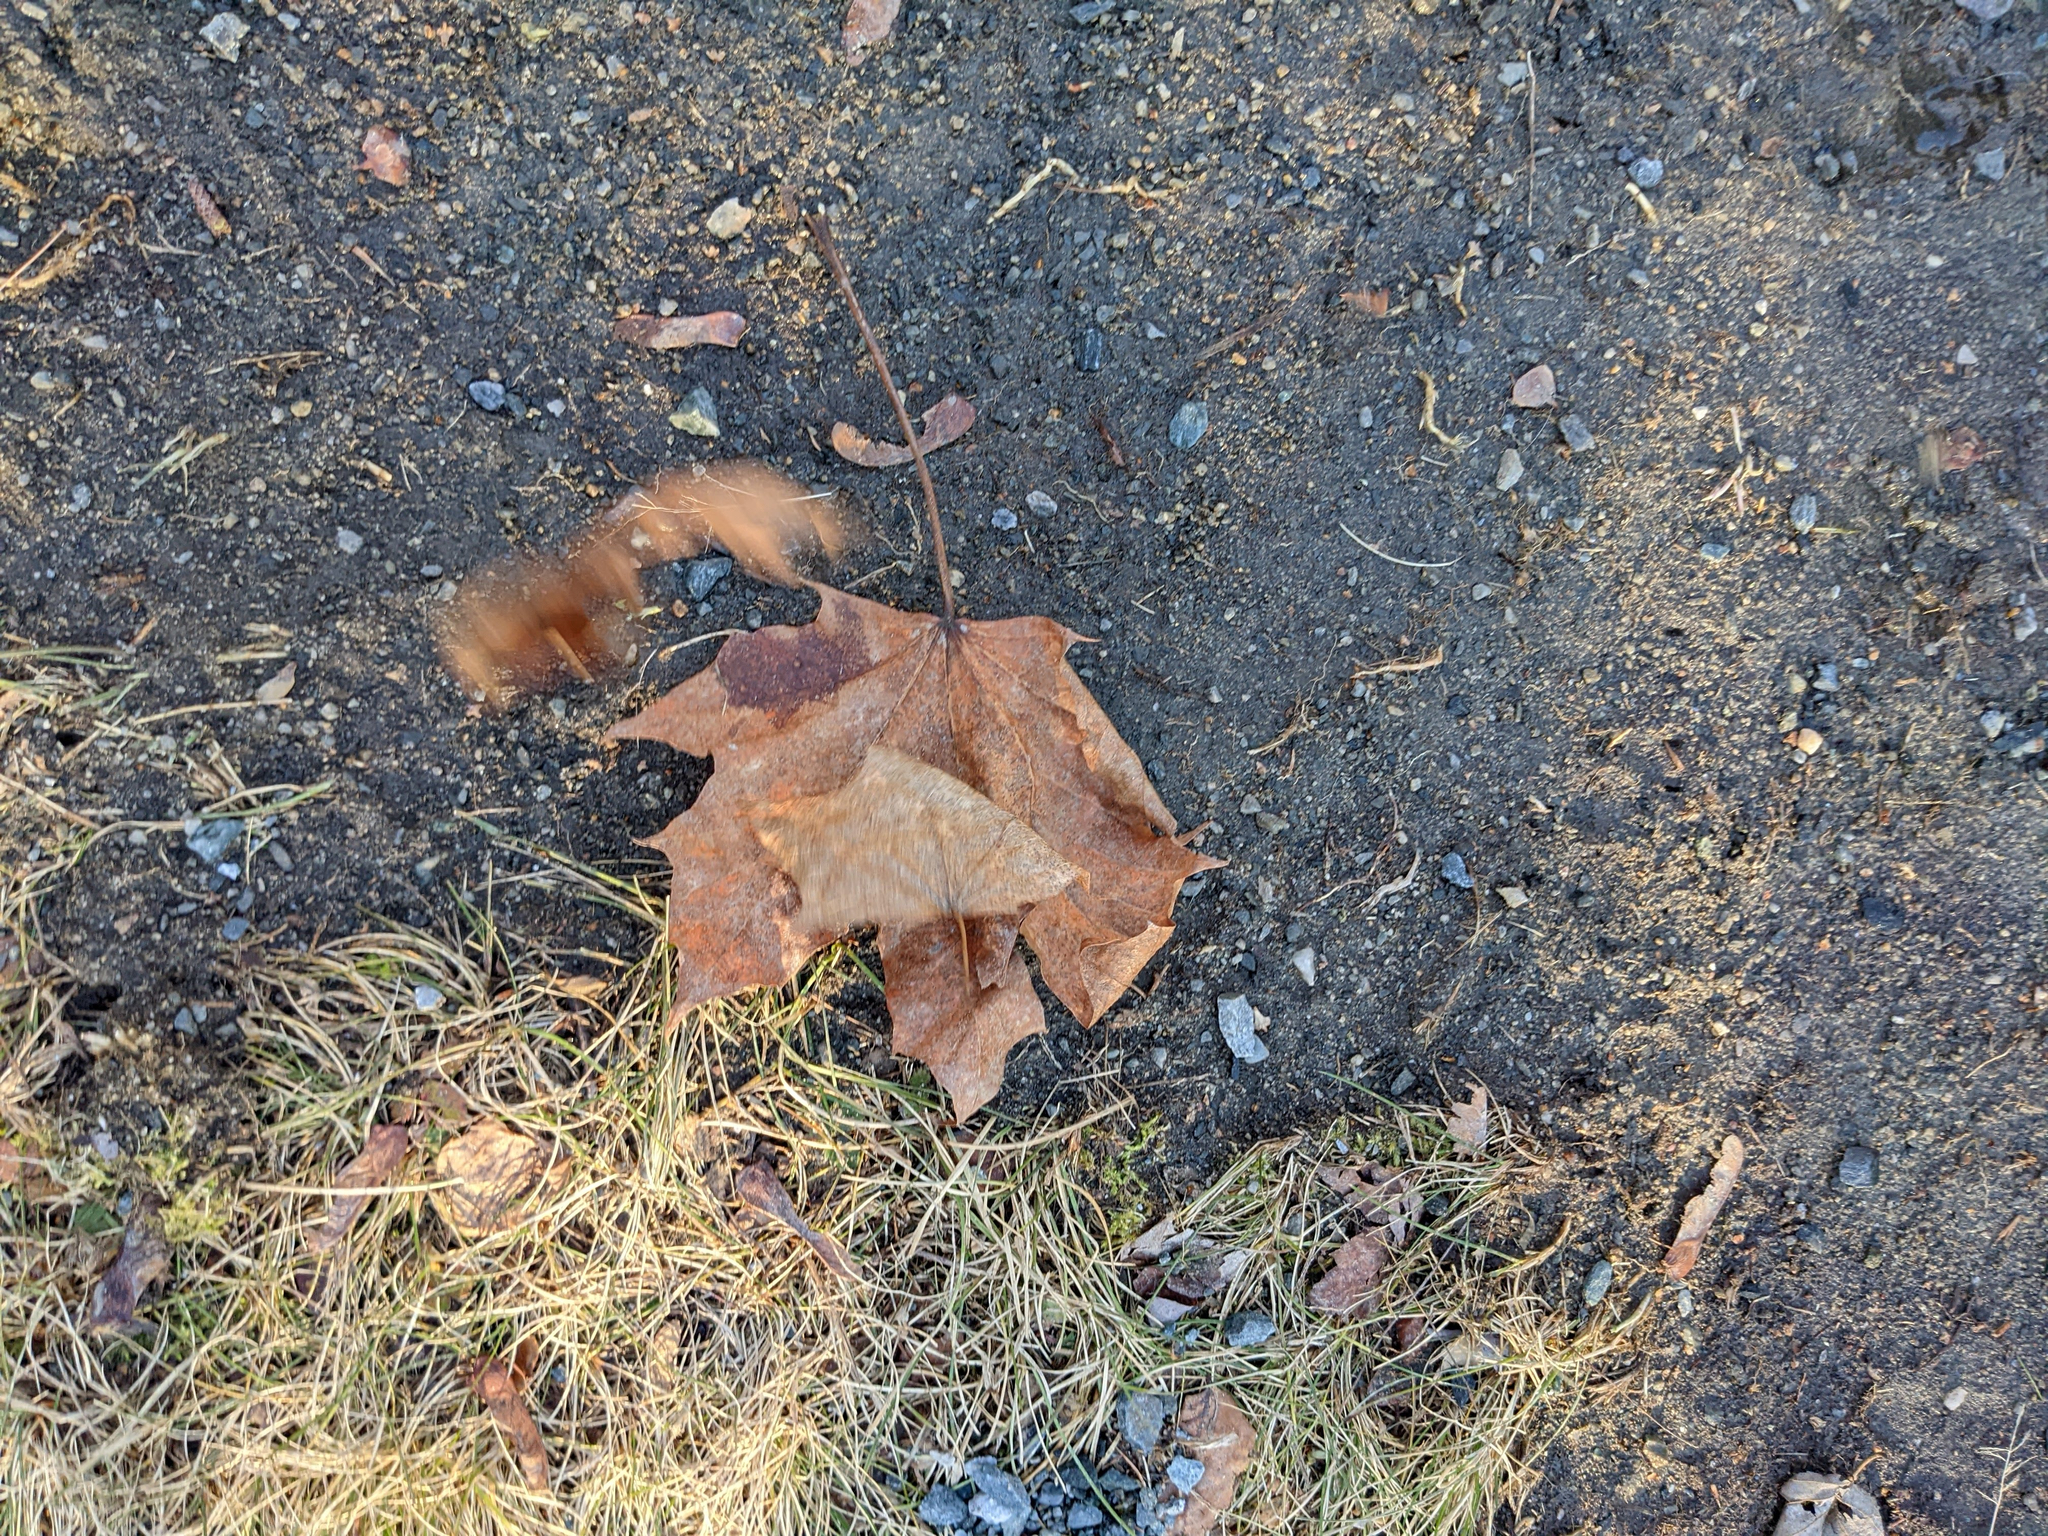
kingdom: Plantae
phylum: Tracheophyta
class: Magnoliopsida
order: Sapindales
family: Sapindaceae
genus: Acer
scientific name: Acer platanoides
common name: Norway maple
